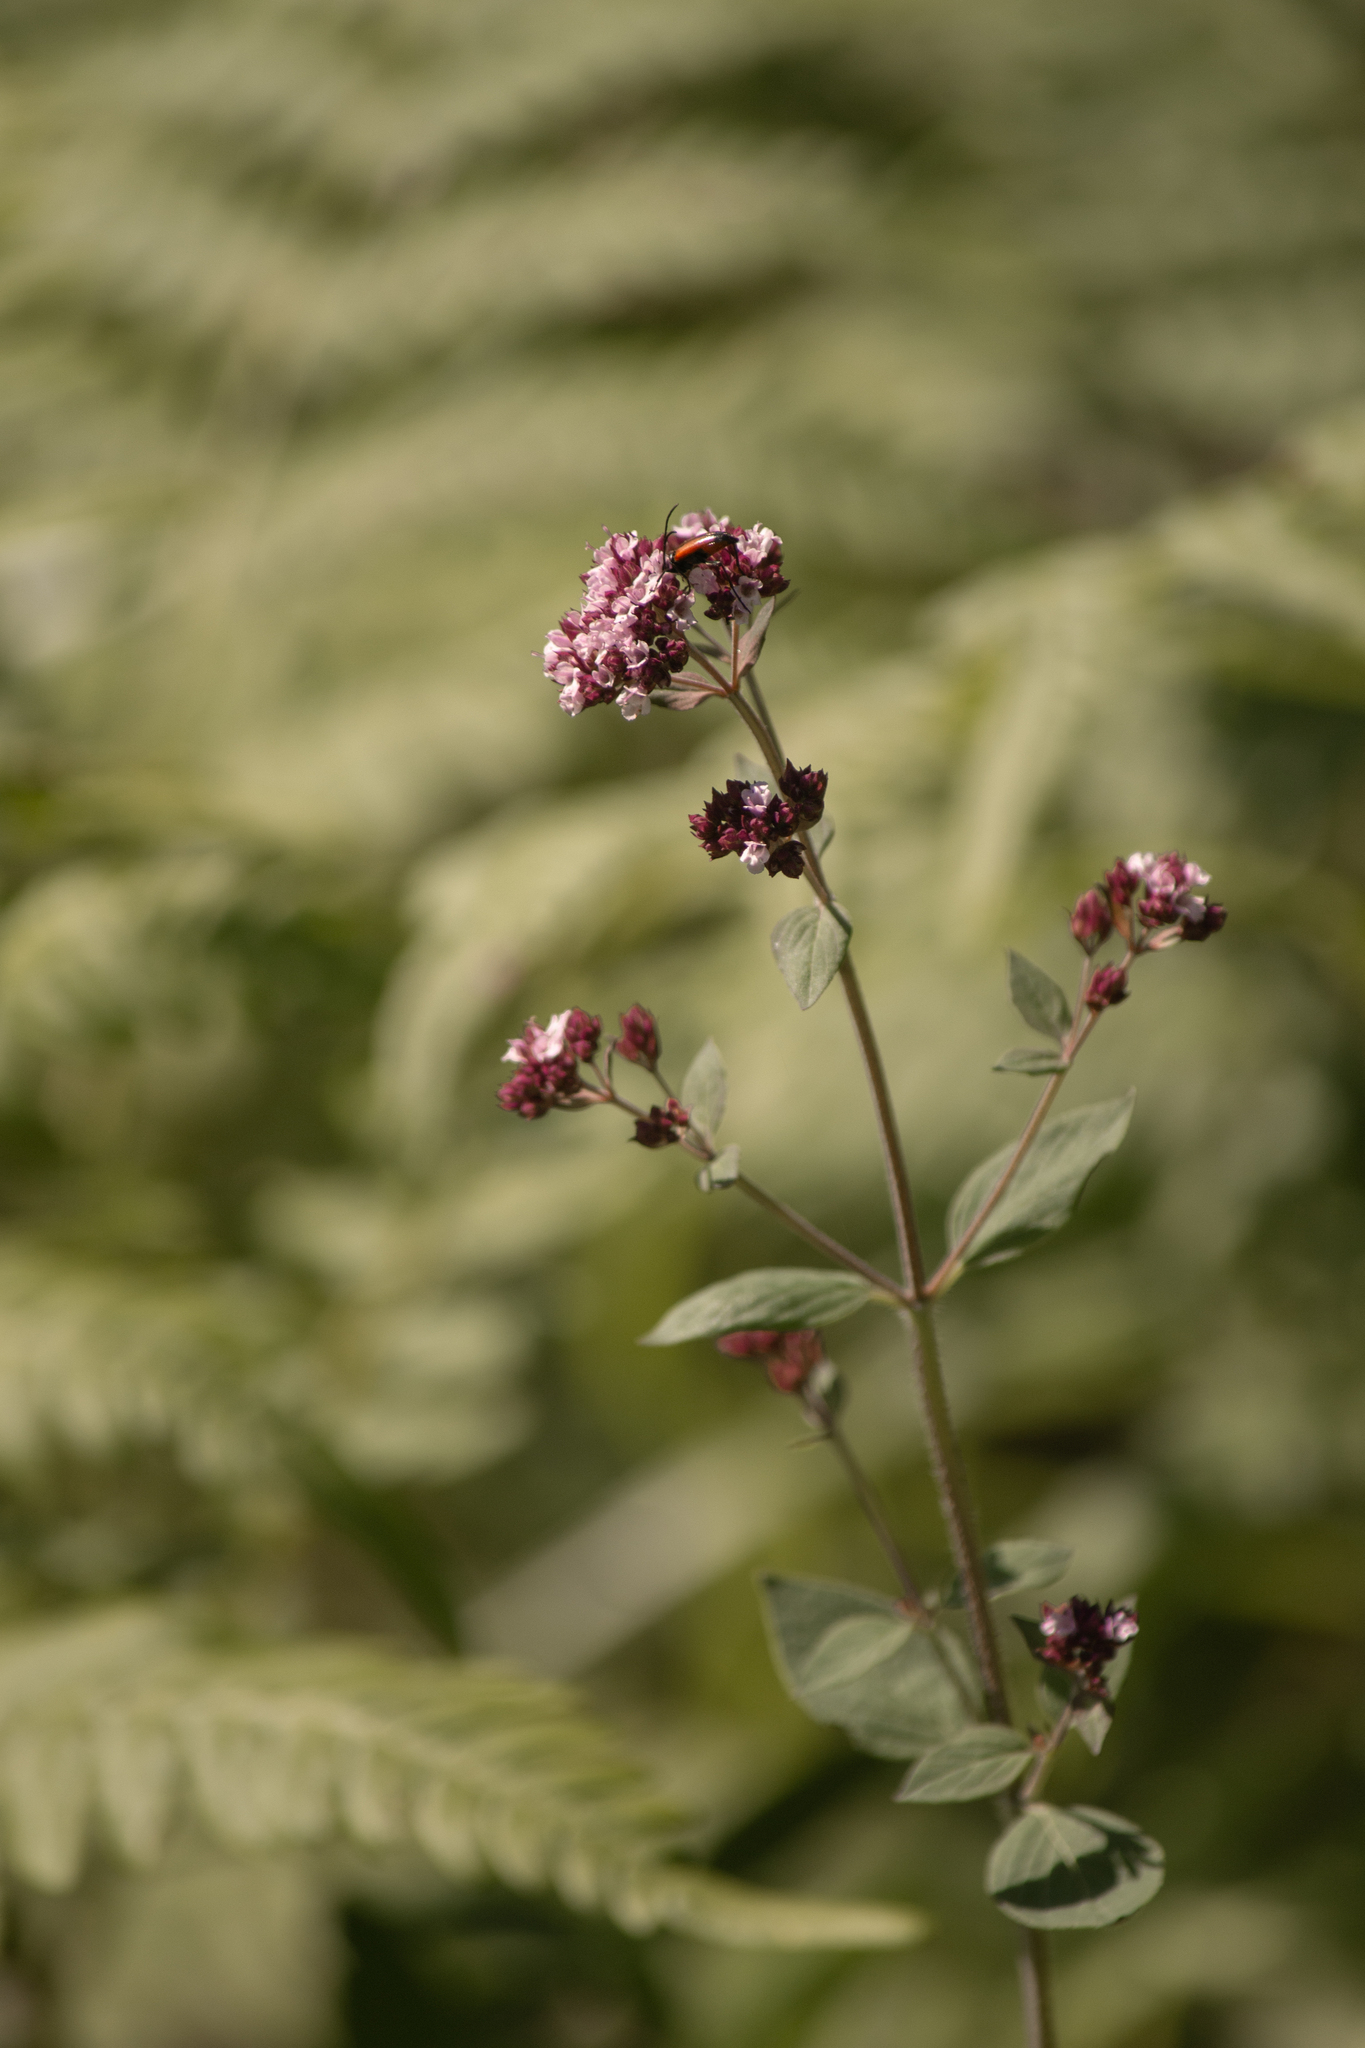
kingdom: Plantae
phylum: Tracheophyta
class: Magnoliopsida
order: Lamiales
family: Lamiaceae
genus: Origanum
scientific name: Origanum vulgare
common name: Wild marjoram
